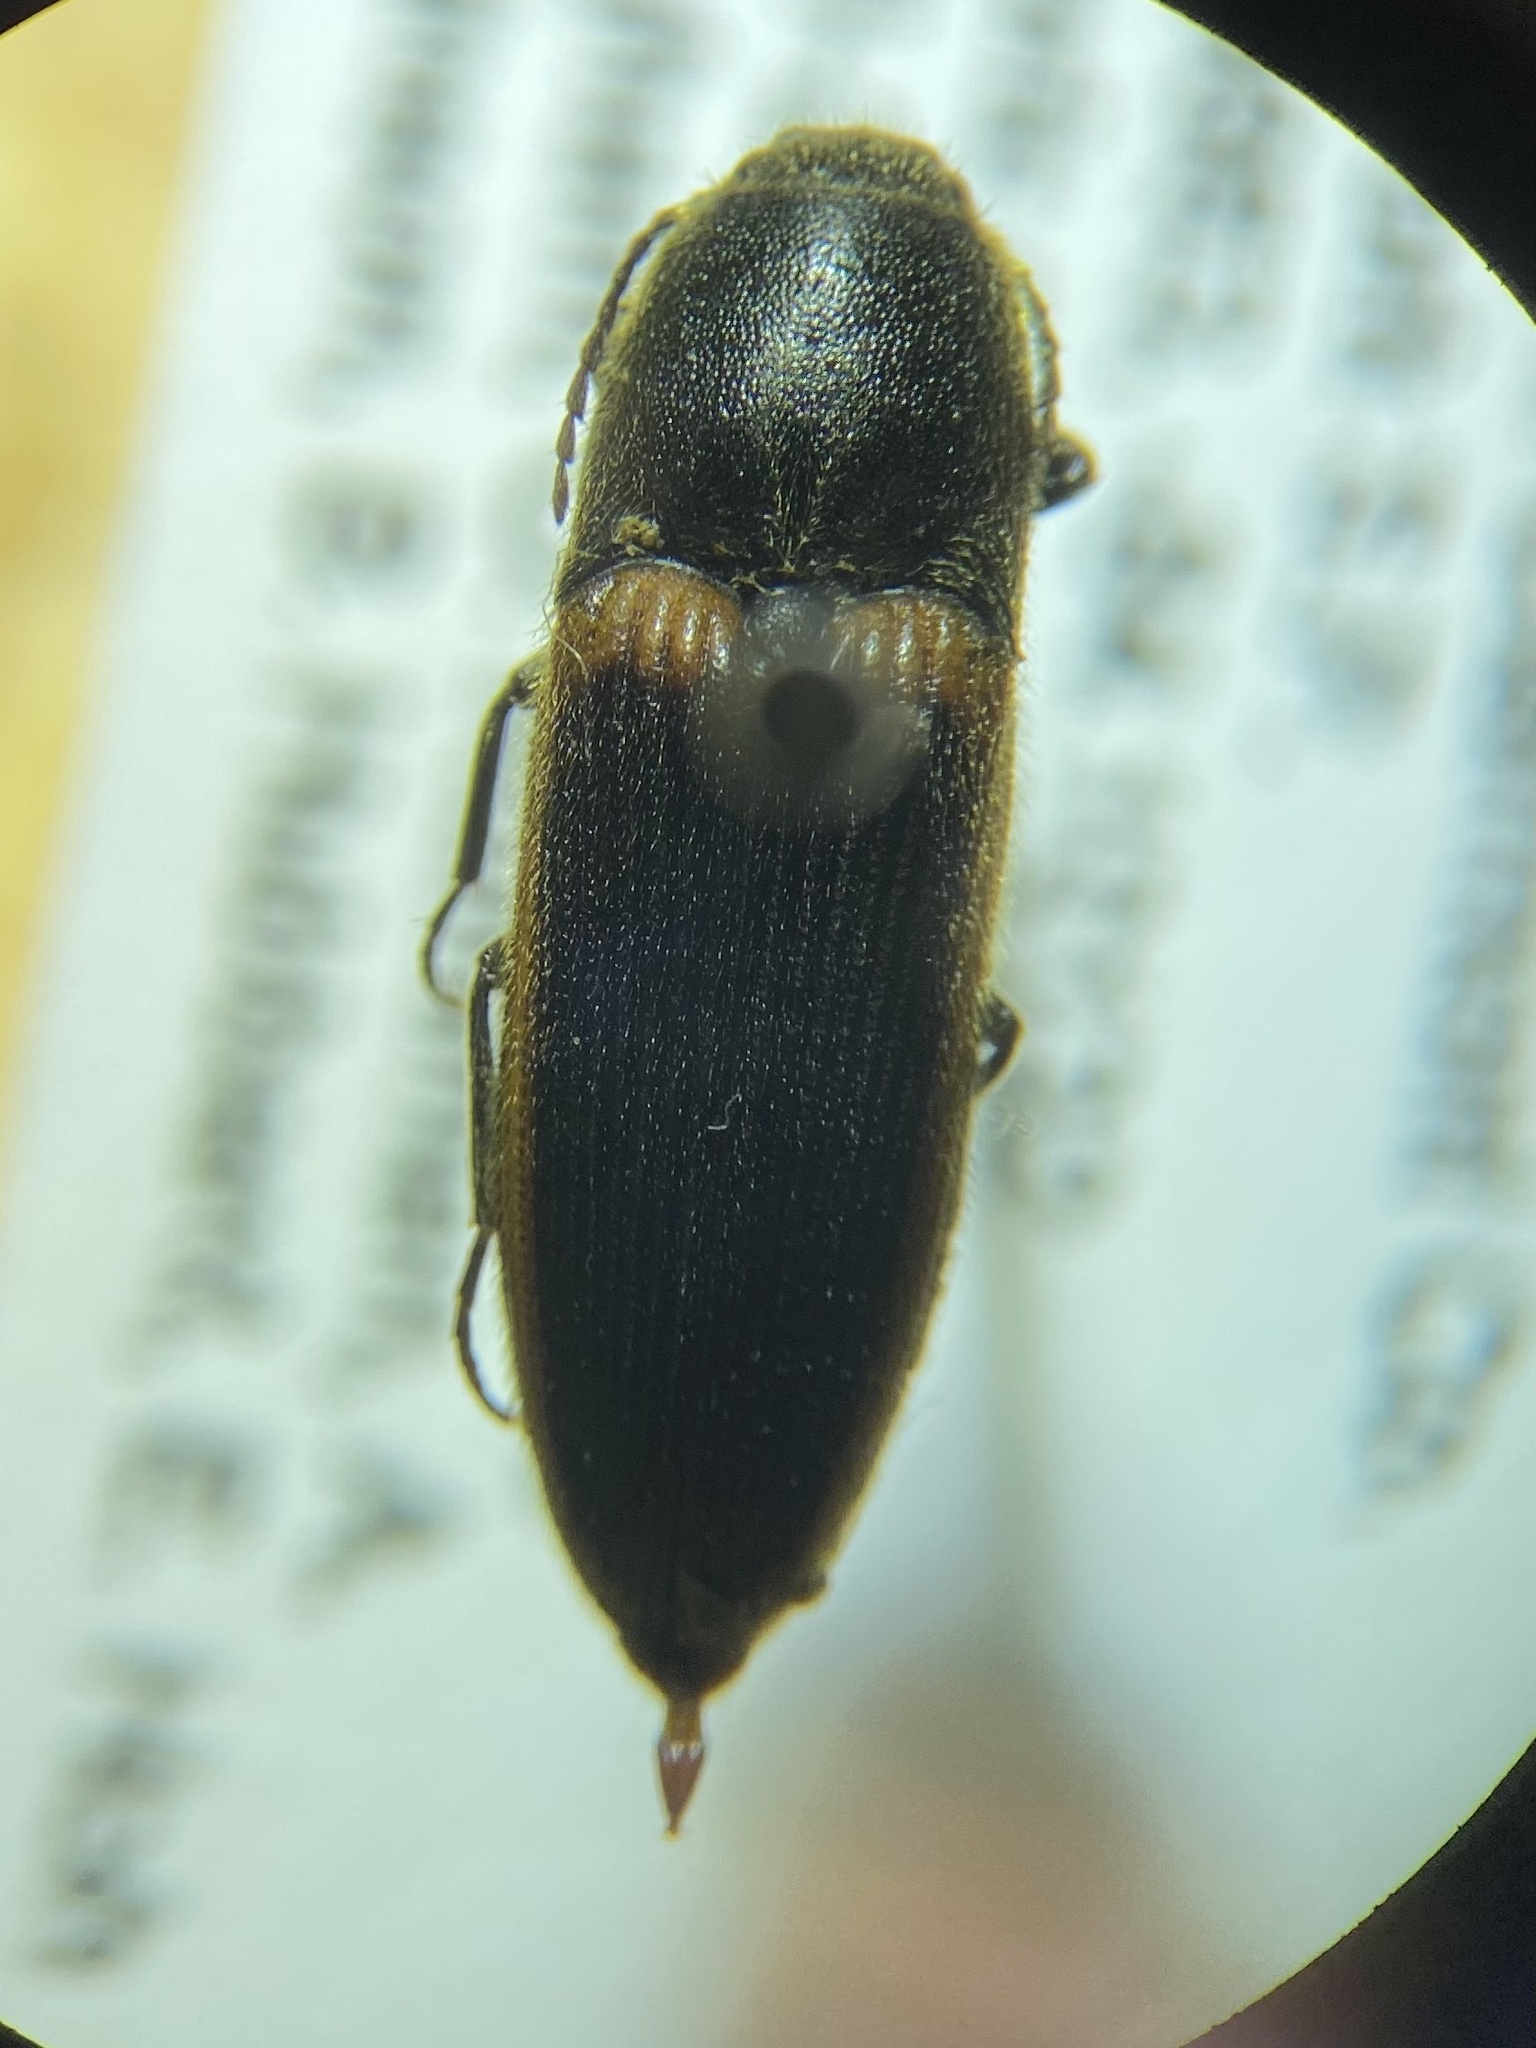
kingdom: Animalia
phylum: Arthropoda
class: Insecta
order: Coleoptera
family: Elateridae
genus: Ampedus
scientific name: Ampedus oblessus
